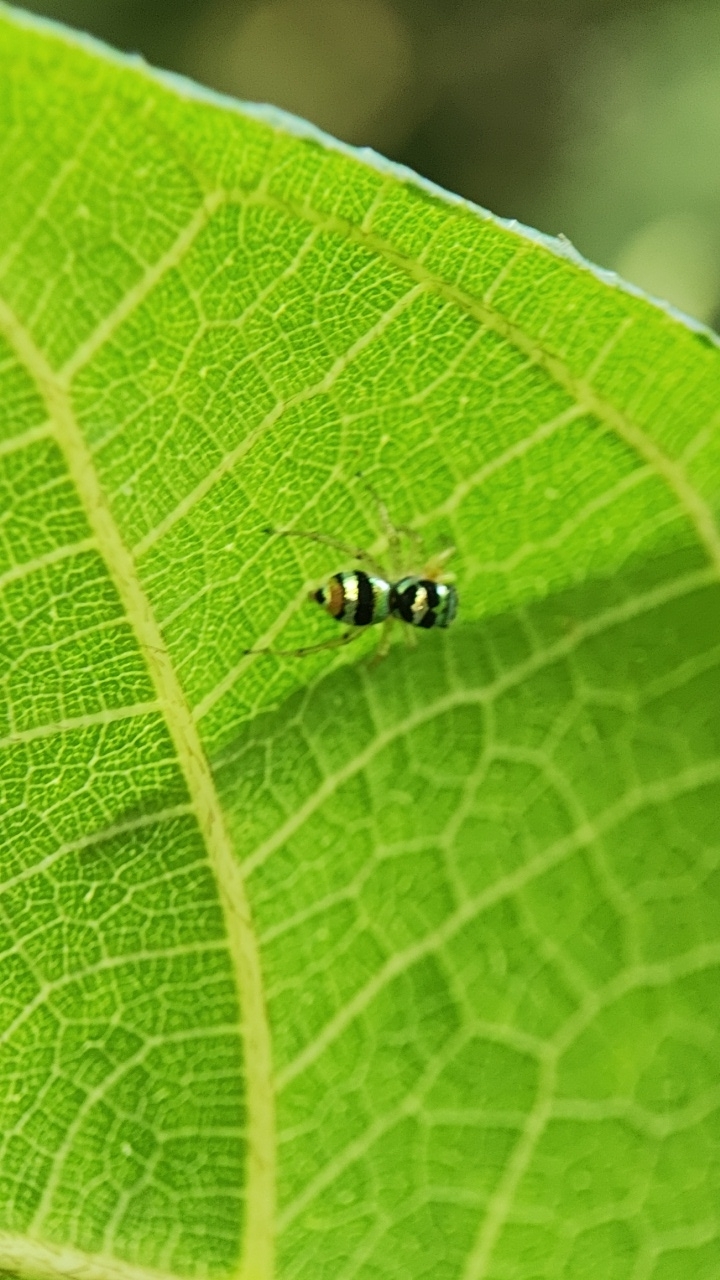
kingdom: Animalia
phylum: Arthropoda
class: Arachnida
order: Araneae
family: Salticidae
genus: Phintella
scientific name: Phintella vittata
